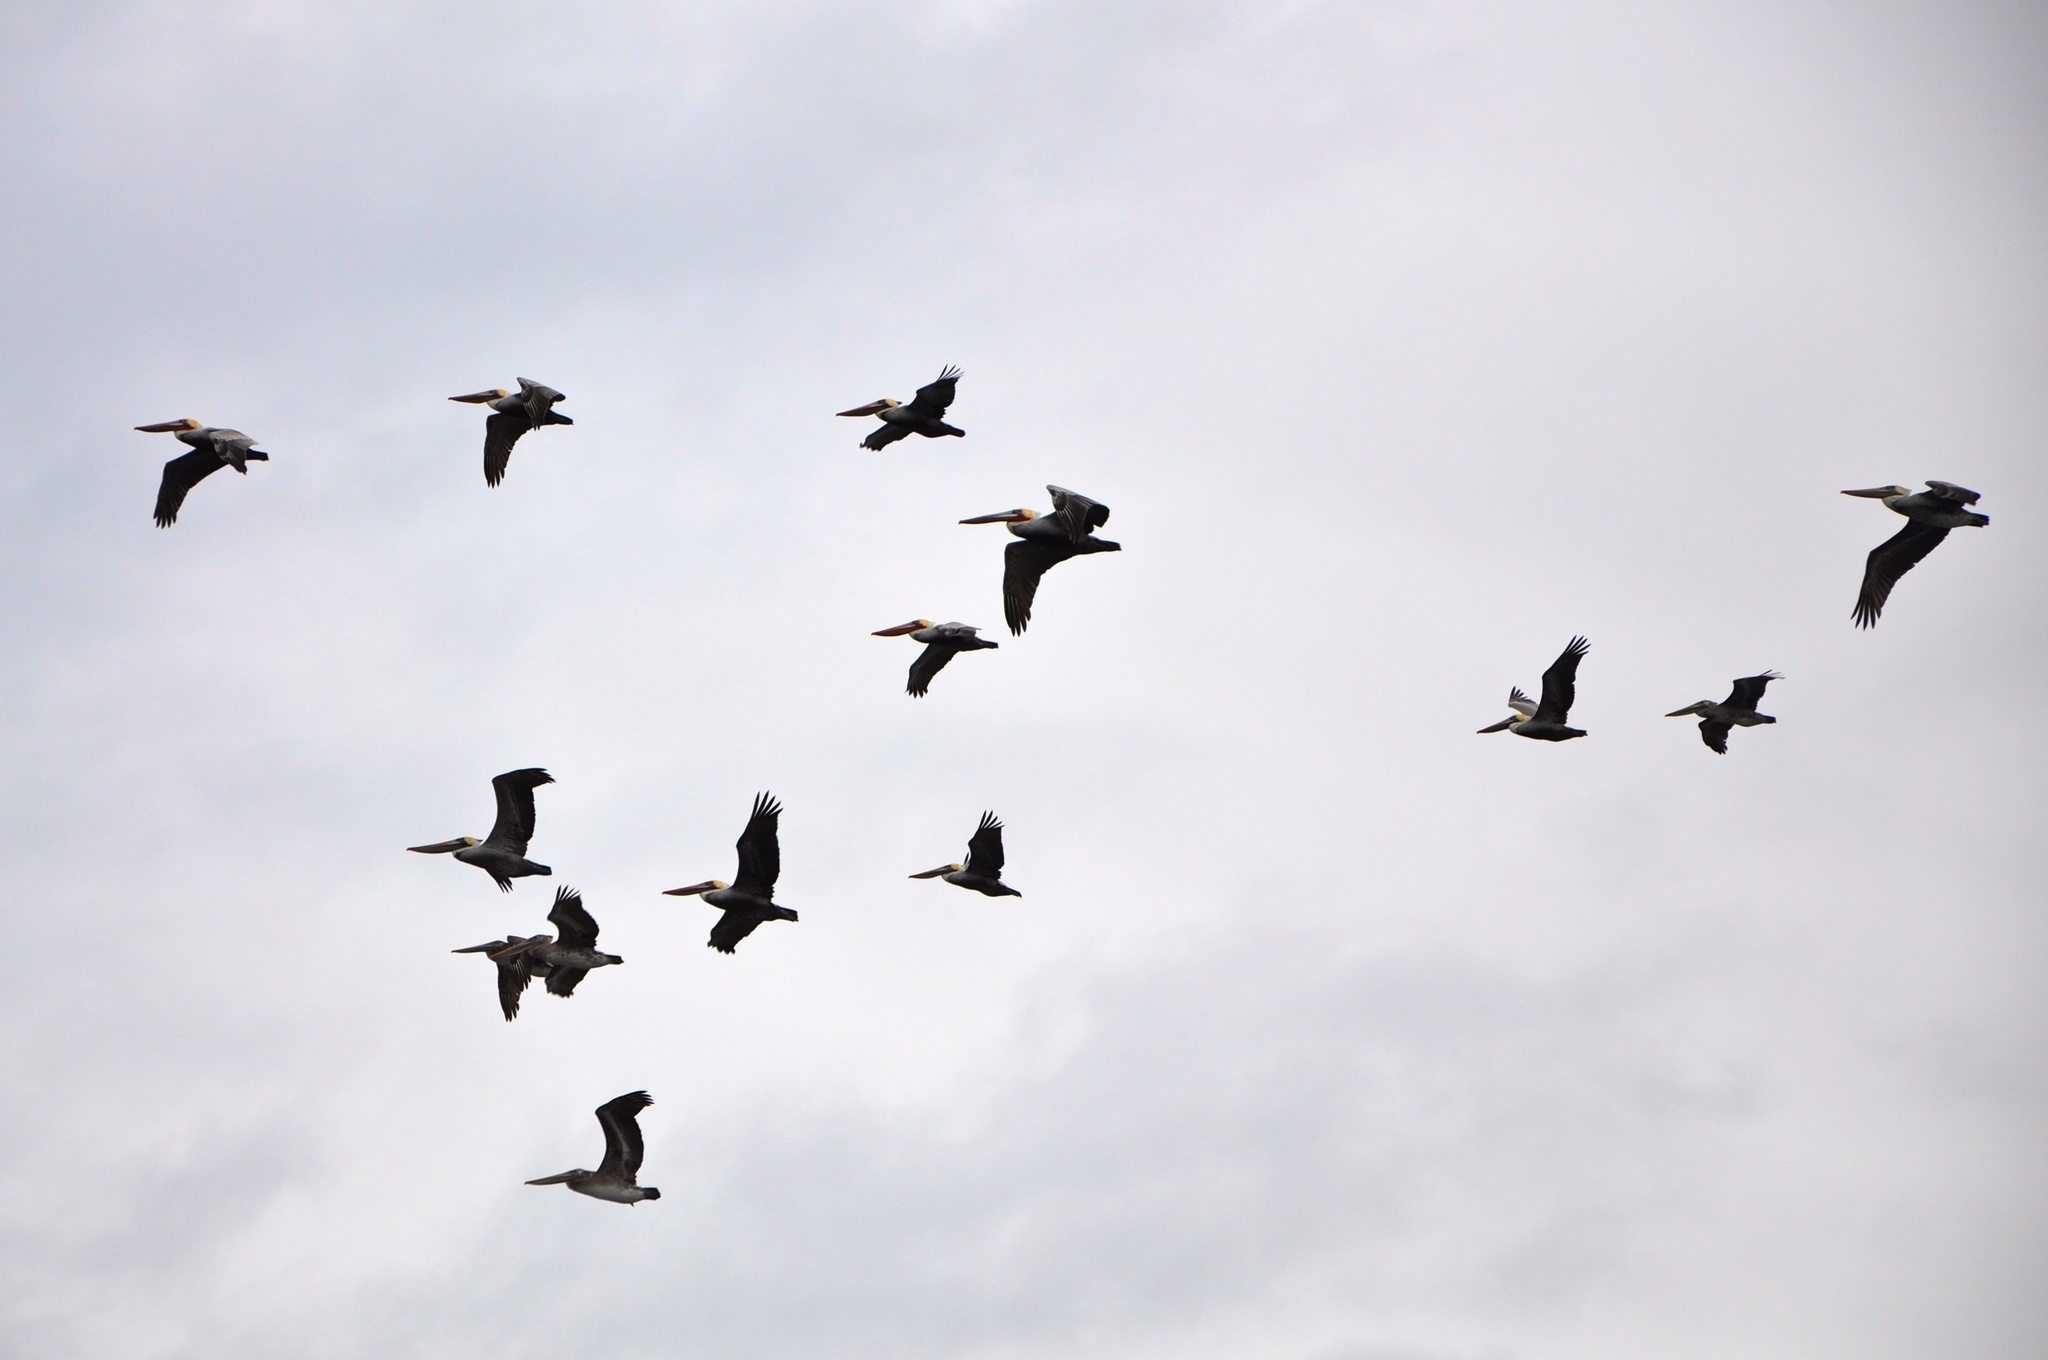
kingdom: Animalia
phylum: Chordata
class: Aves
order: Pelecaniformes
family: Pelecanidae
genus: Pelecanus
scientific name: Pelecanus occidentalis
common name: Brown pelican
